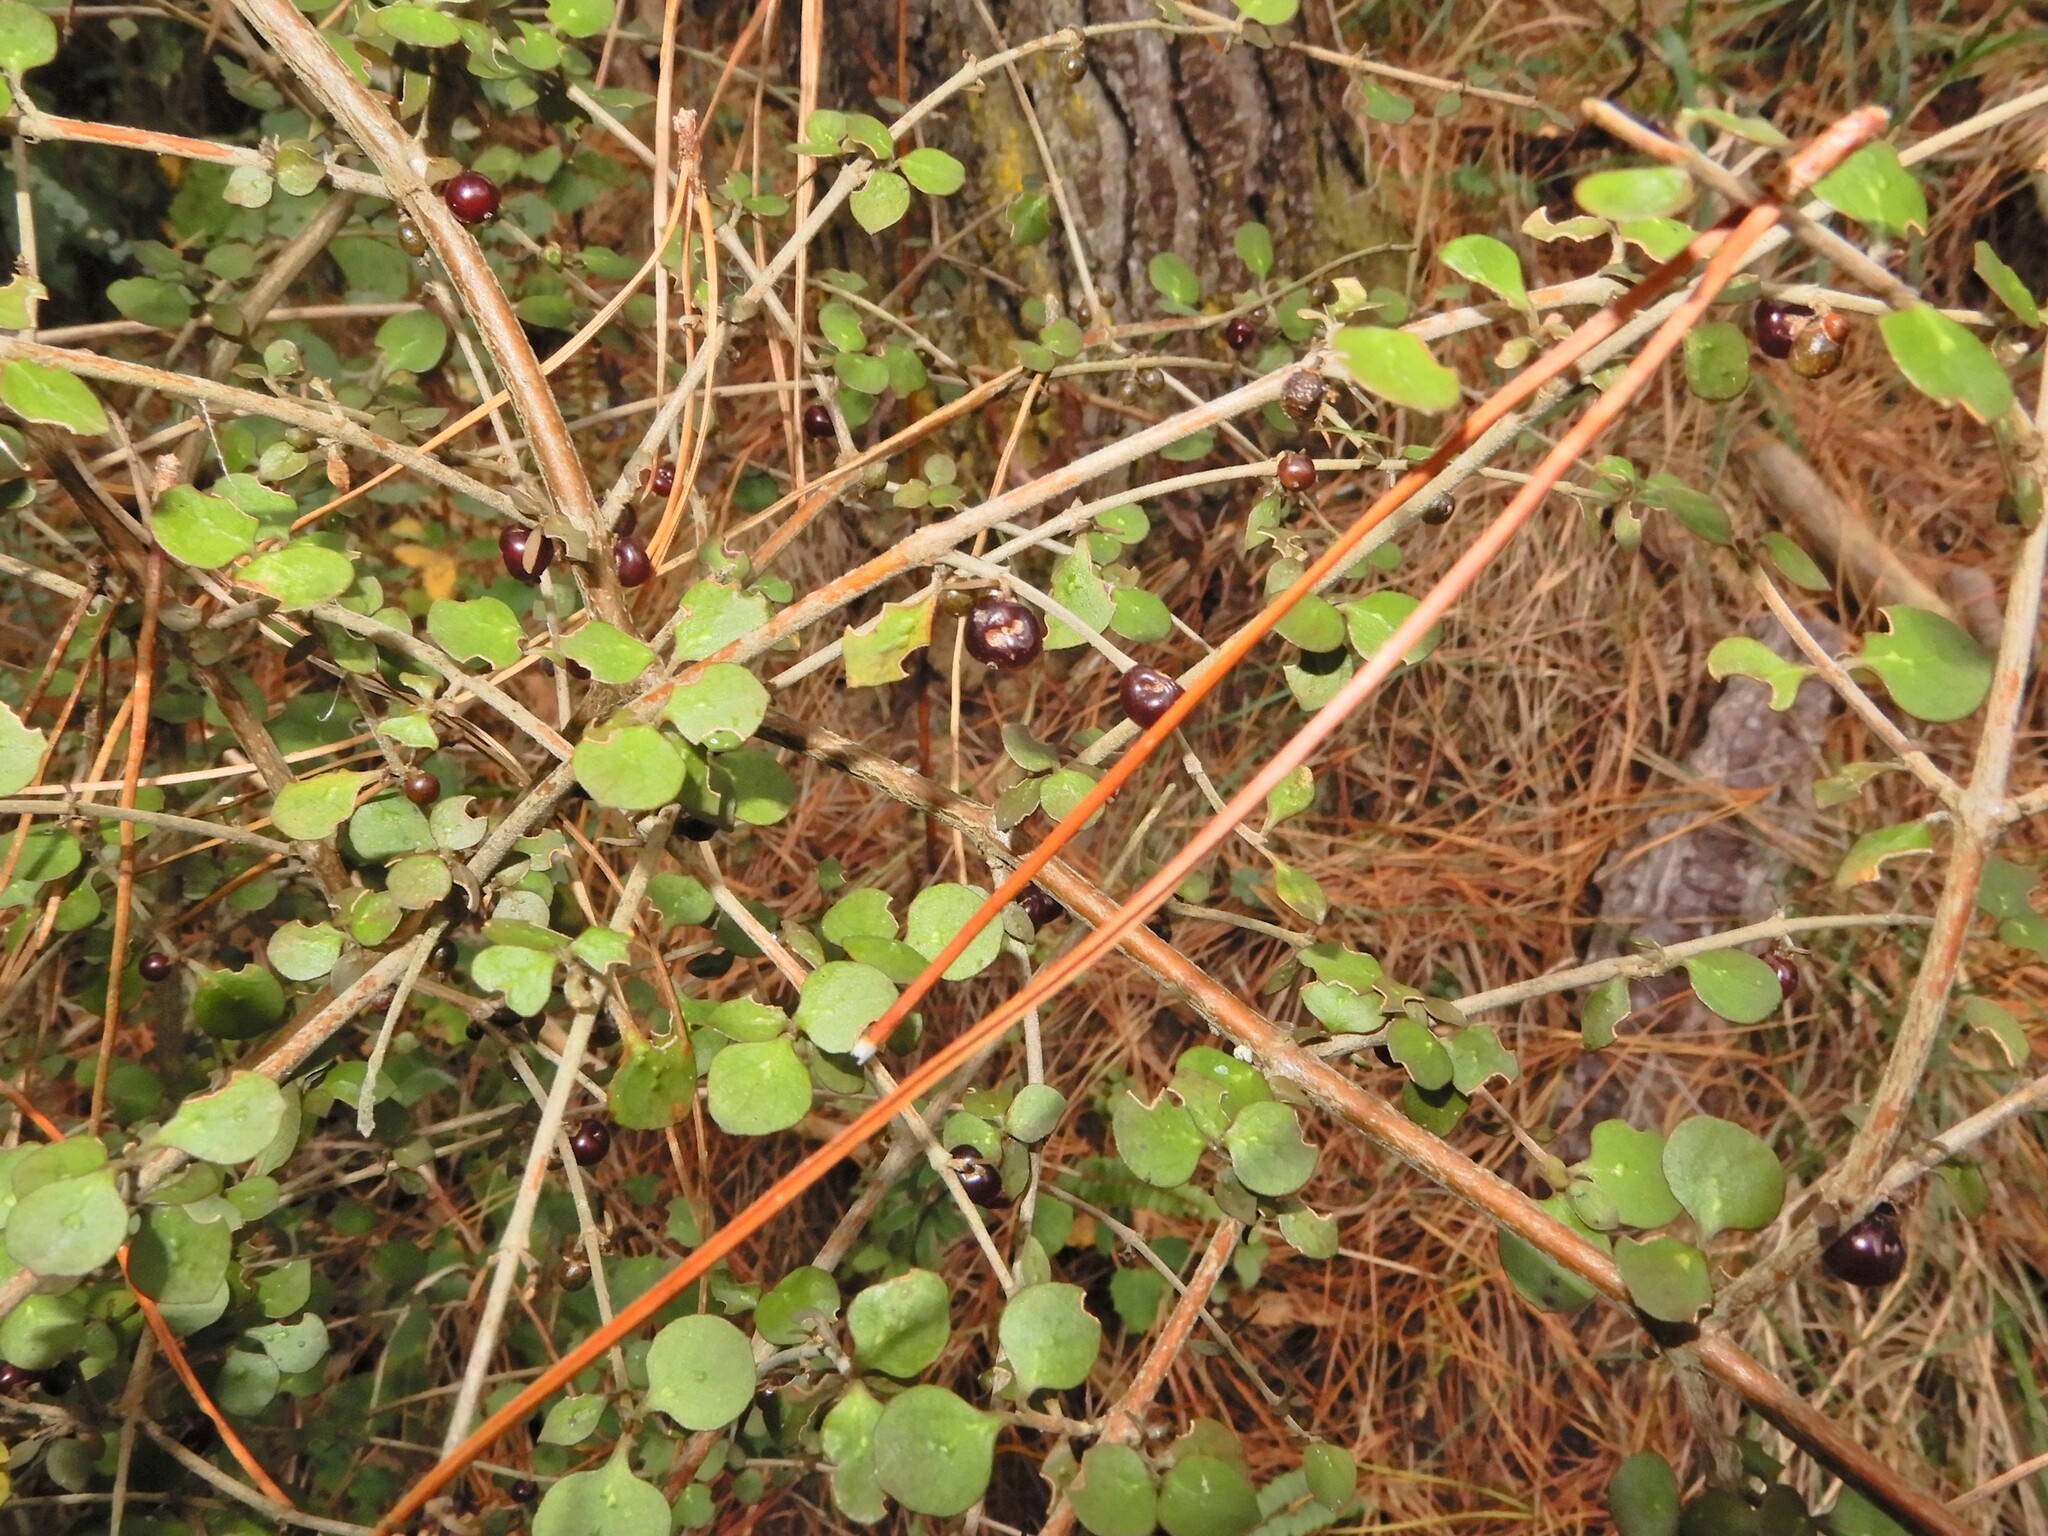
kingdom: Plantae
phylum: Tracheophyta
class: Magnoliopsida
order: Gentianales
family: Rubiaceae
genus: Coprosma
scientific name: Coprosma rhamnoides
